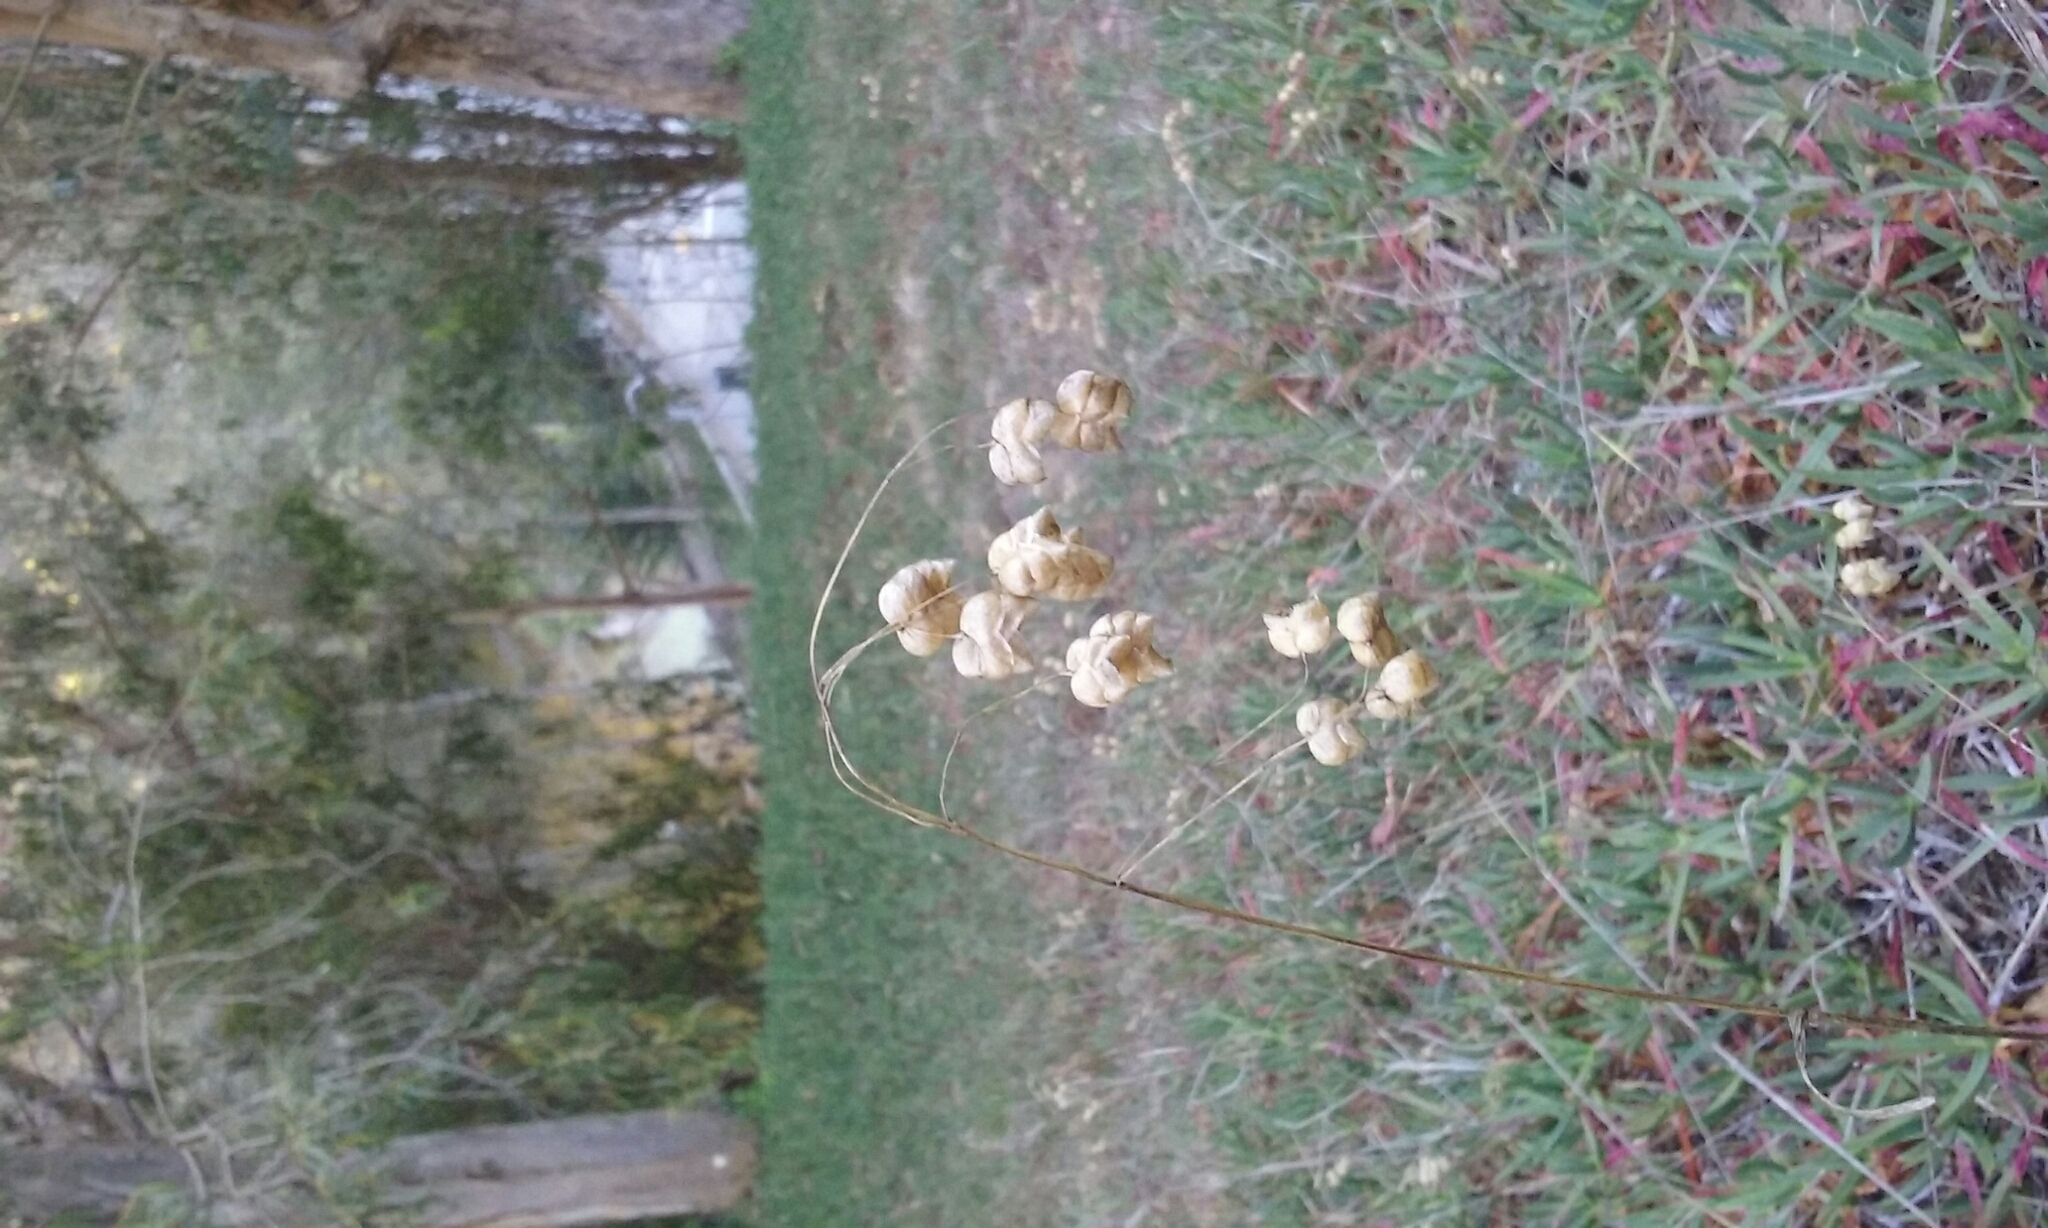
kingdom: Plantae
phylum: Tracheophyta
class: Liliopsida
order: Poales
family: Poaceae
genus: Briza
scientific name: Briza maxima
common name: Big quakinggrass
